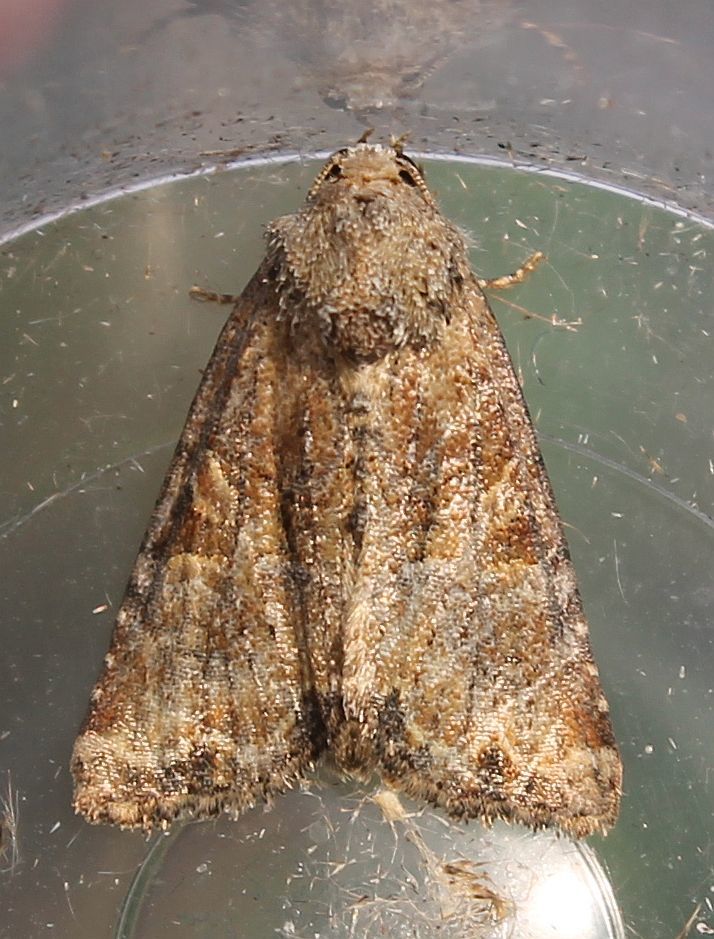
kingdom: Animalia
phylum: Arthropoda
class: Insecta
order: Lepidoptera
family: Noctuidae
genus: Mesoligia
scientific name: Mesoligia furuncula
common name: Cloaked minor
